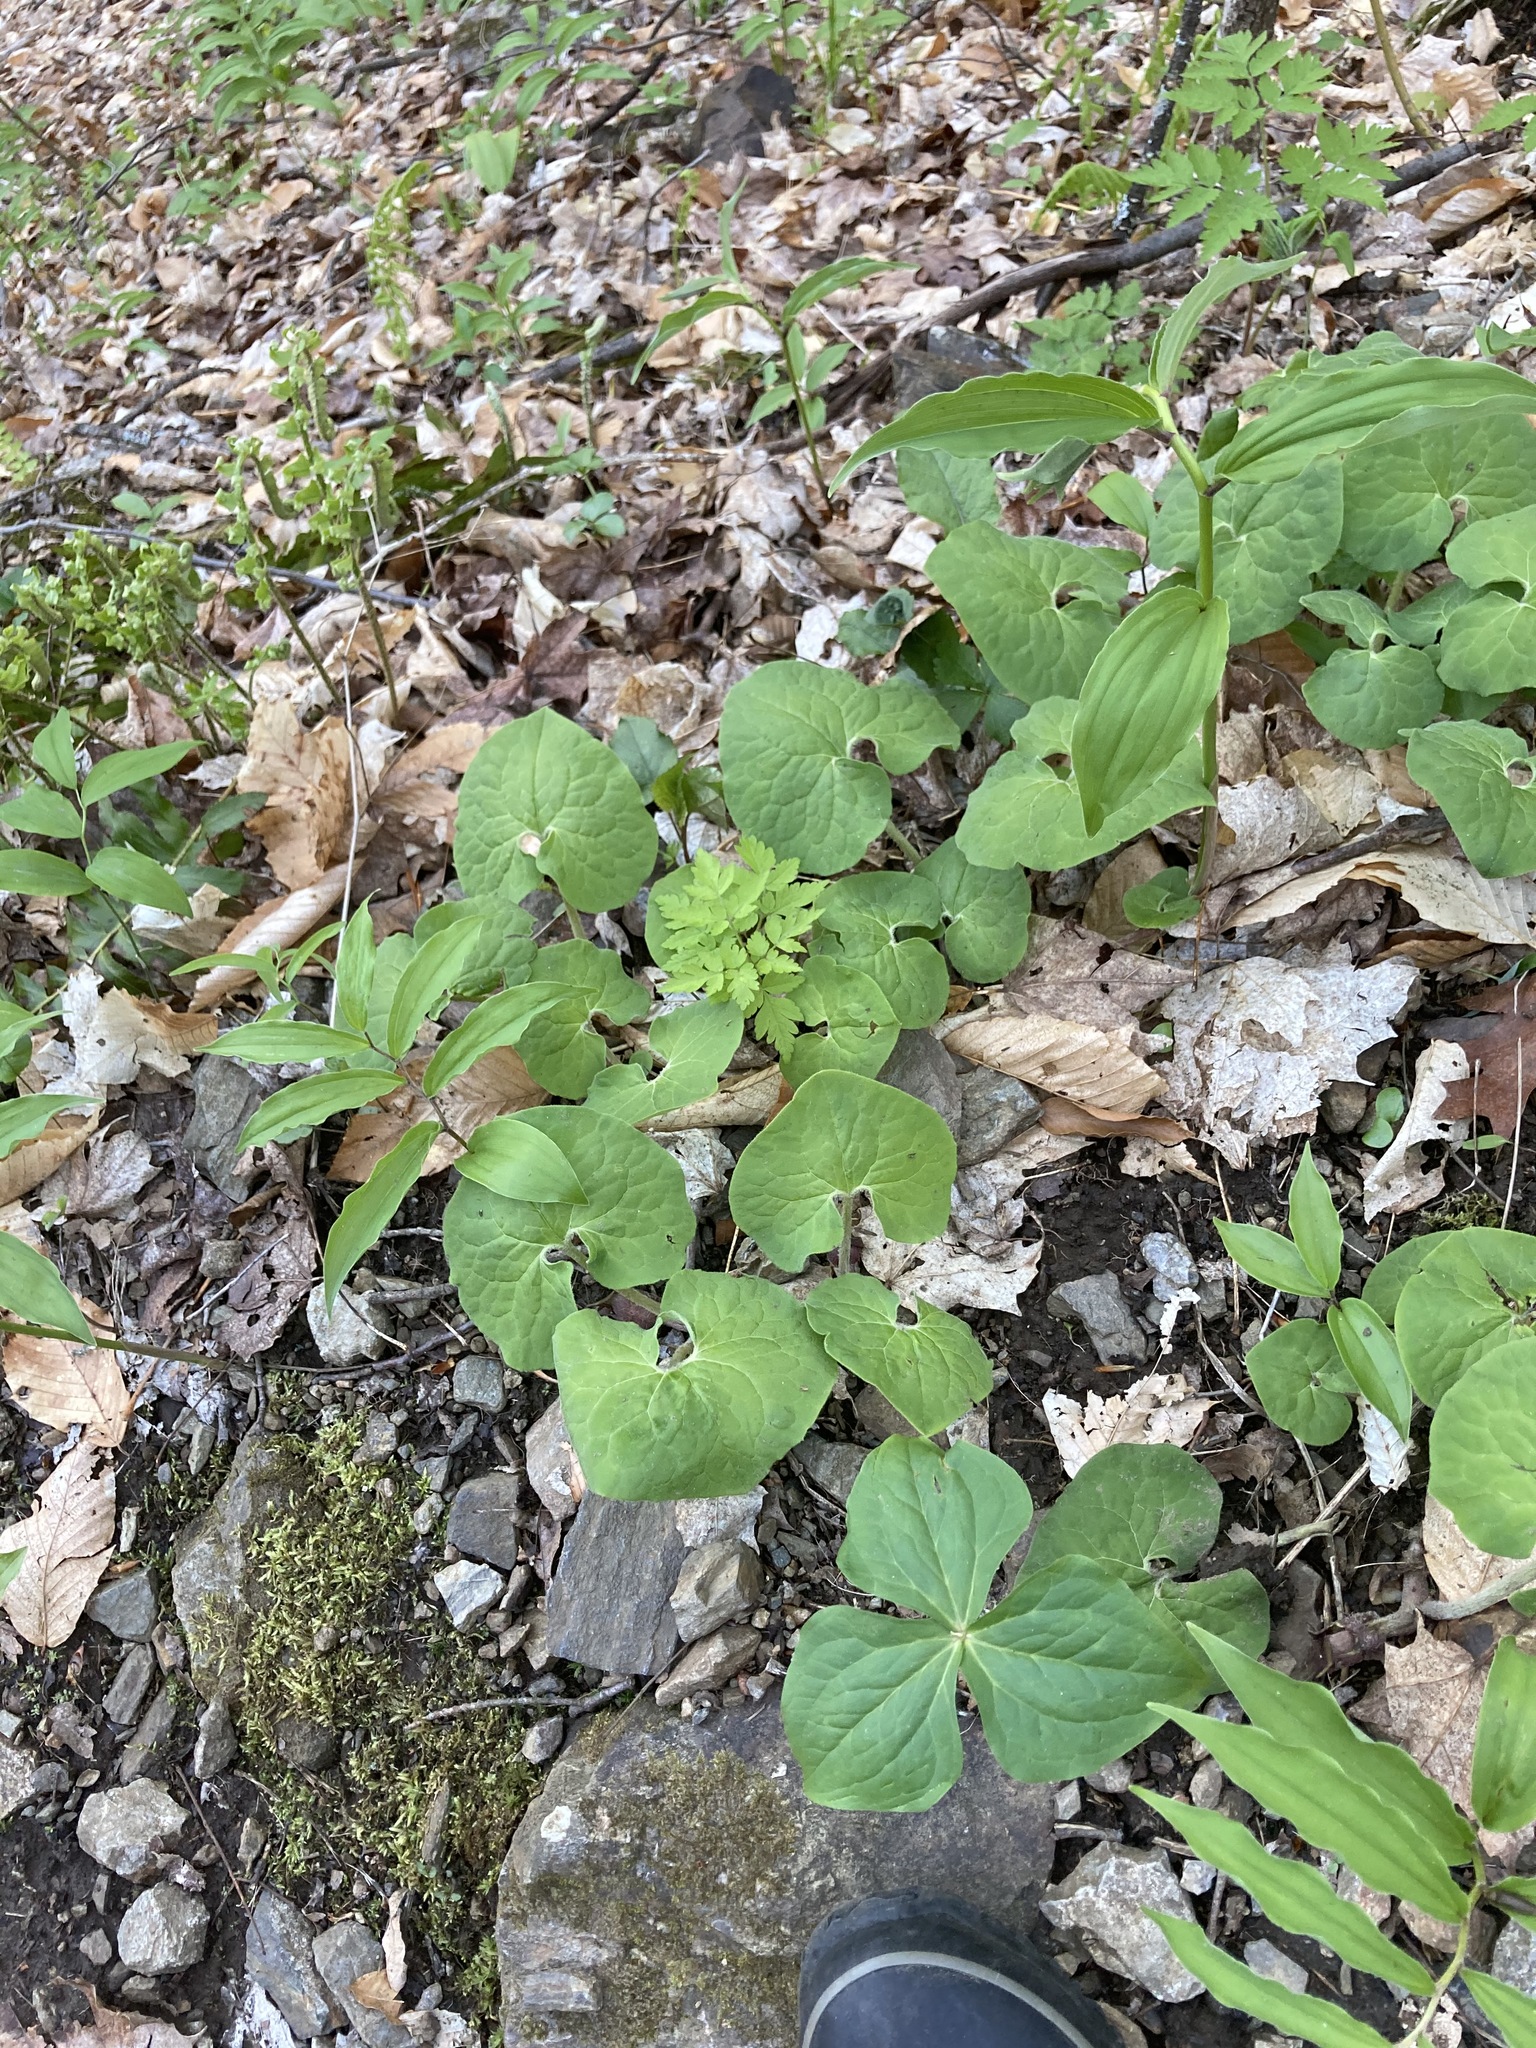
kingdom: Plantae
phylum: Tracheophyta
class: Magnoliopsida
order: Piperales
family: Aristolochiaceae
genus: Asarum
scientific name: Asarum canadense
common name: Wild ginger
